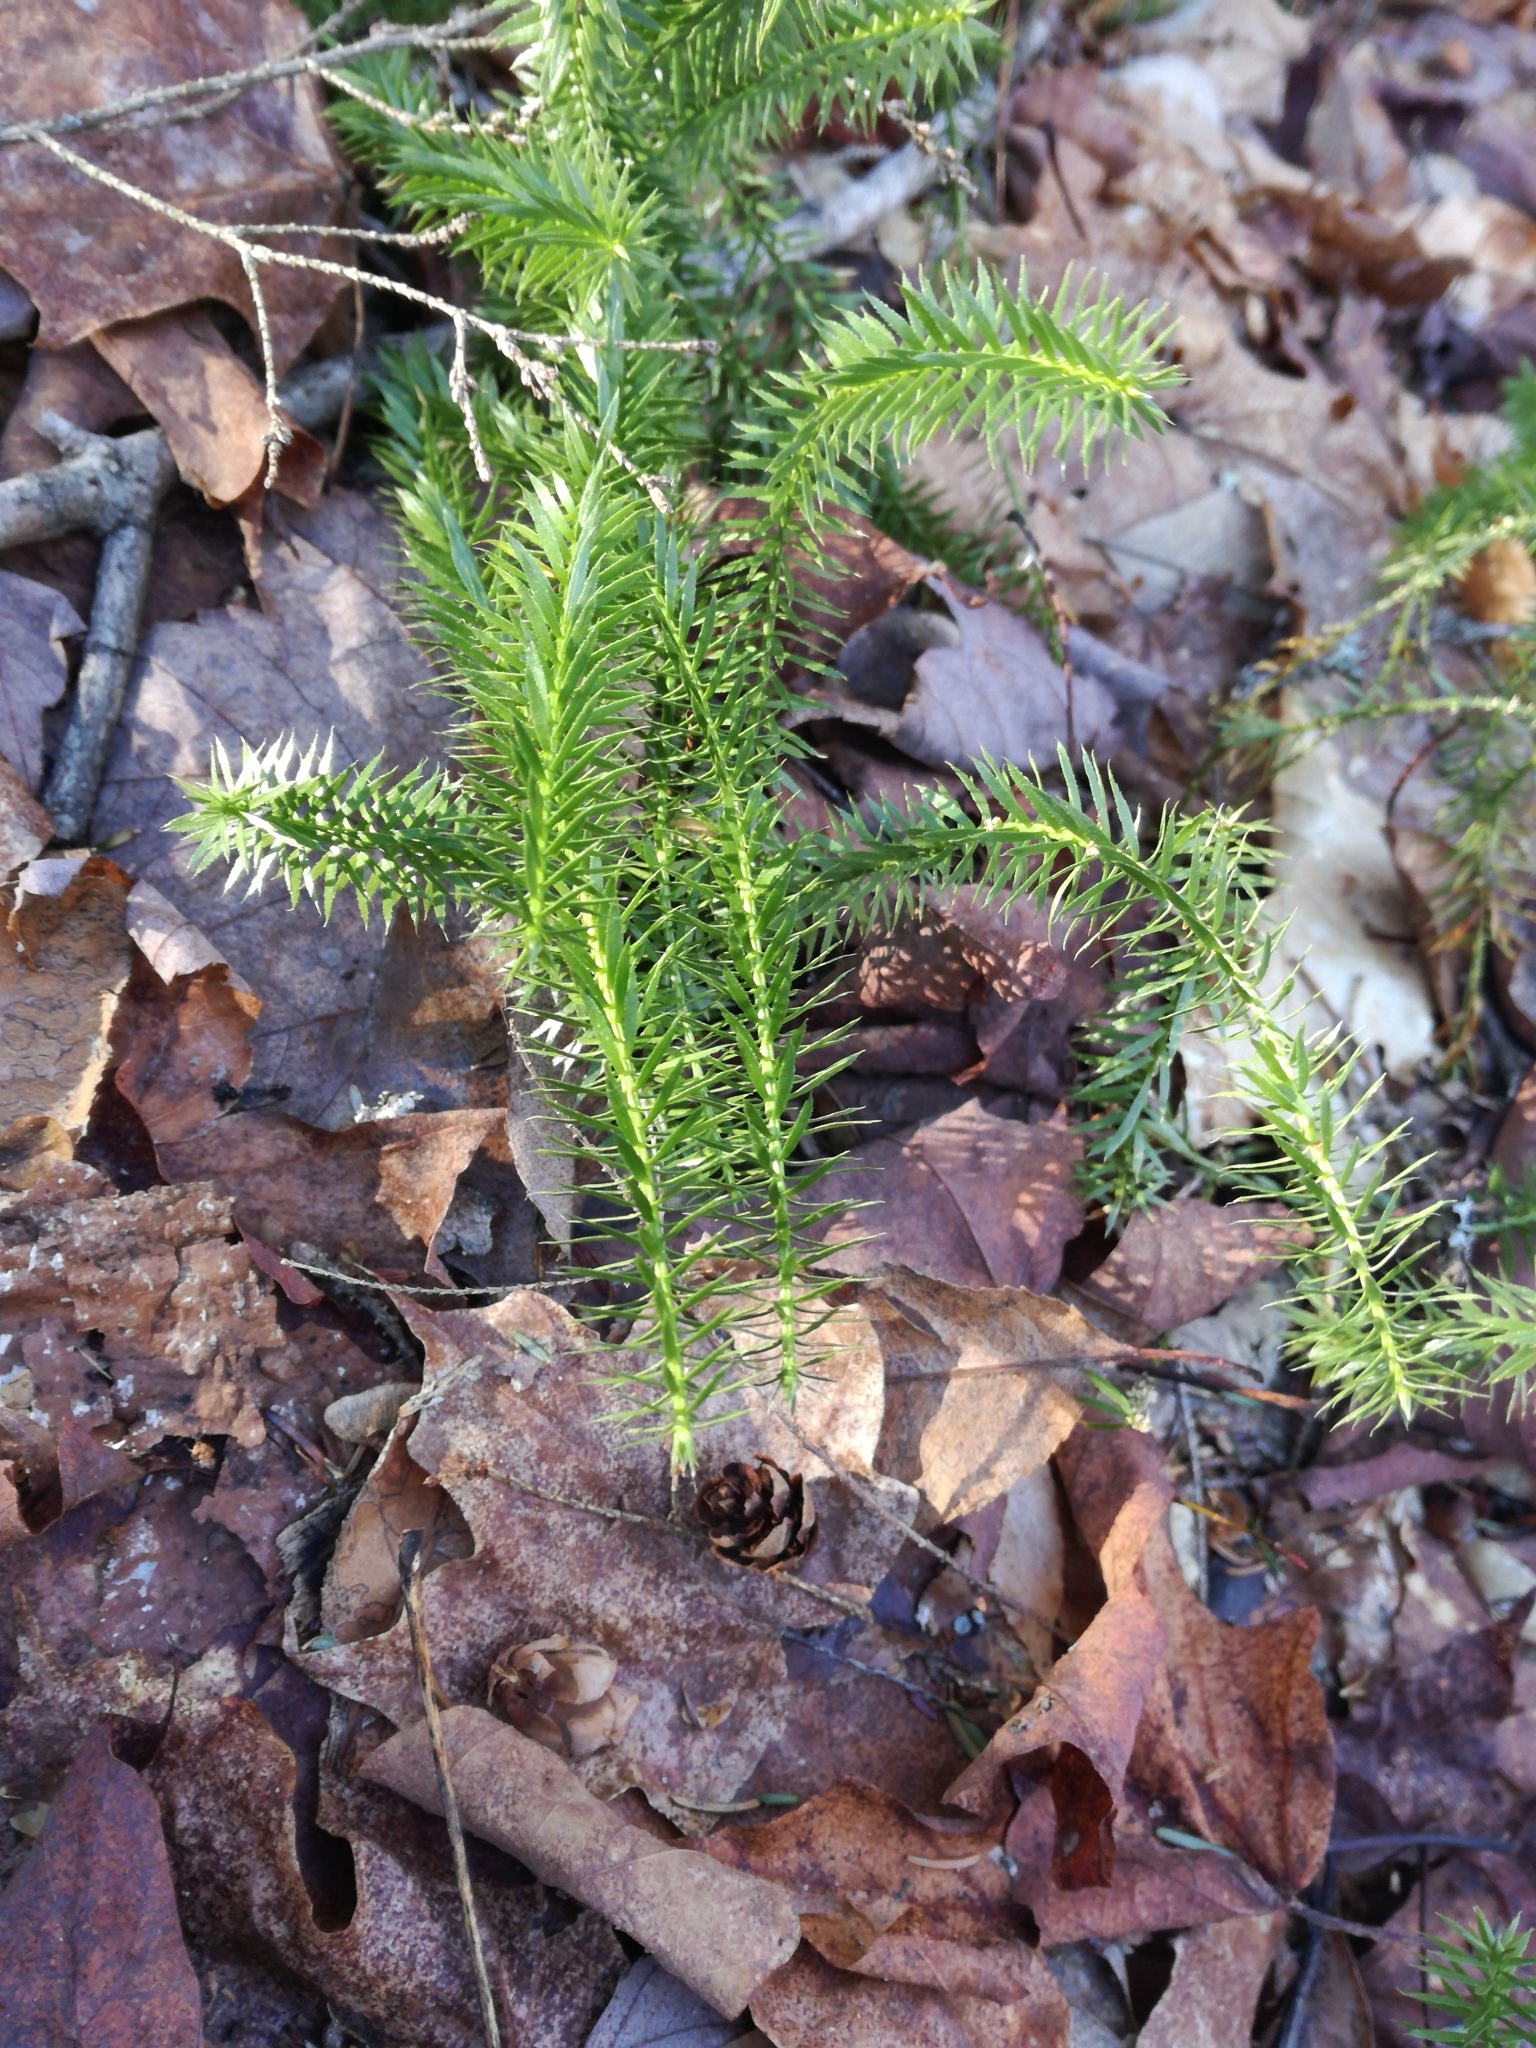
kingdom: Plantae
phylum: Tracheophyta
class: Lycopodiopsida
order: Lycopodiales
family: Lycopodiaceae
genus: Spinulum
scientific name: Spinulum annotinum
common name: Interrupted club-moss
